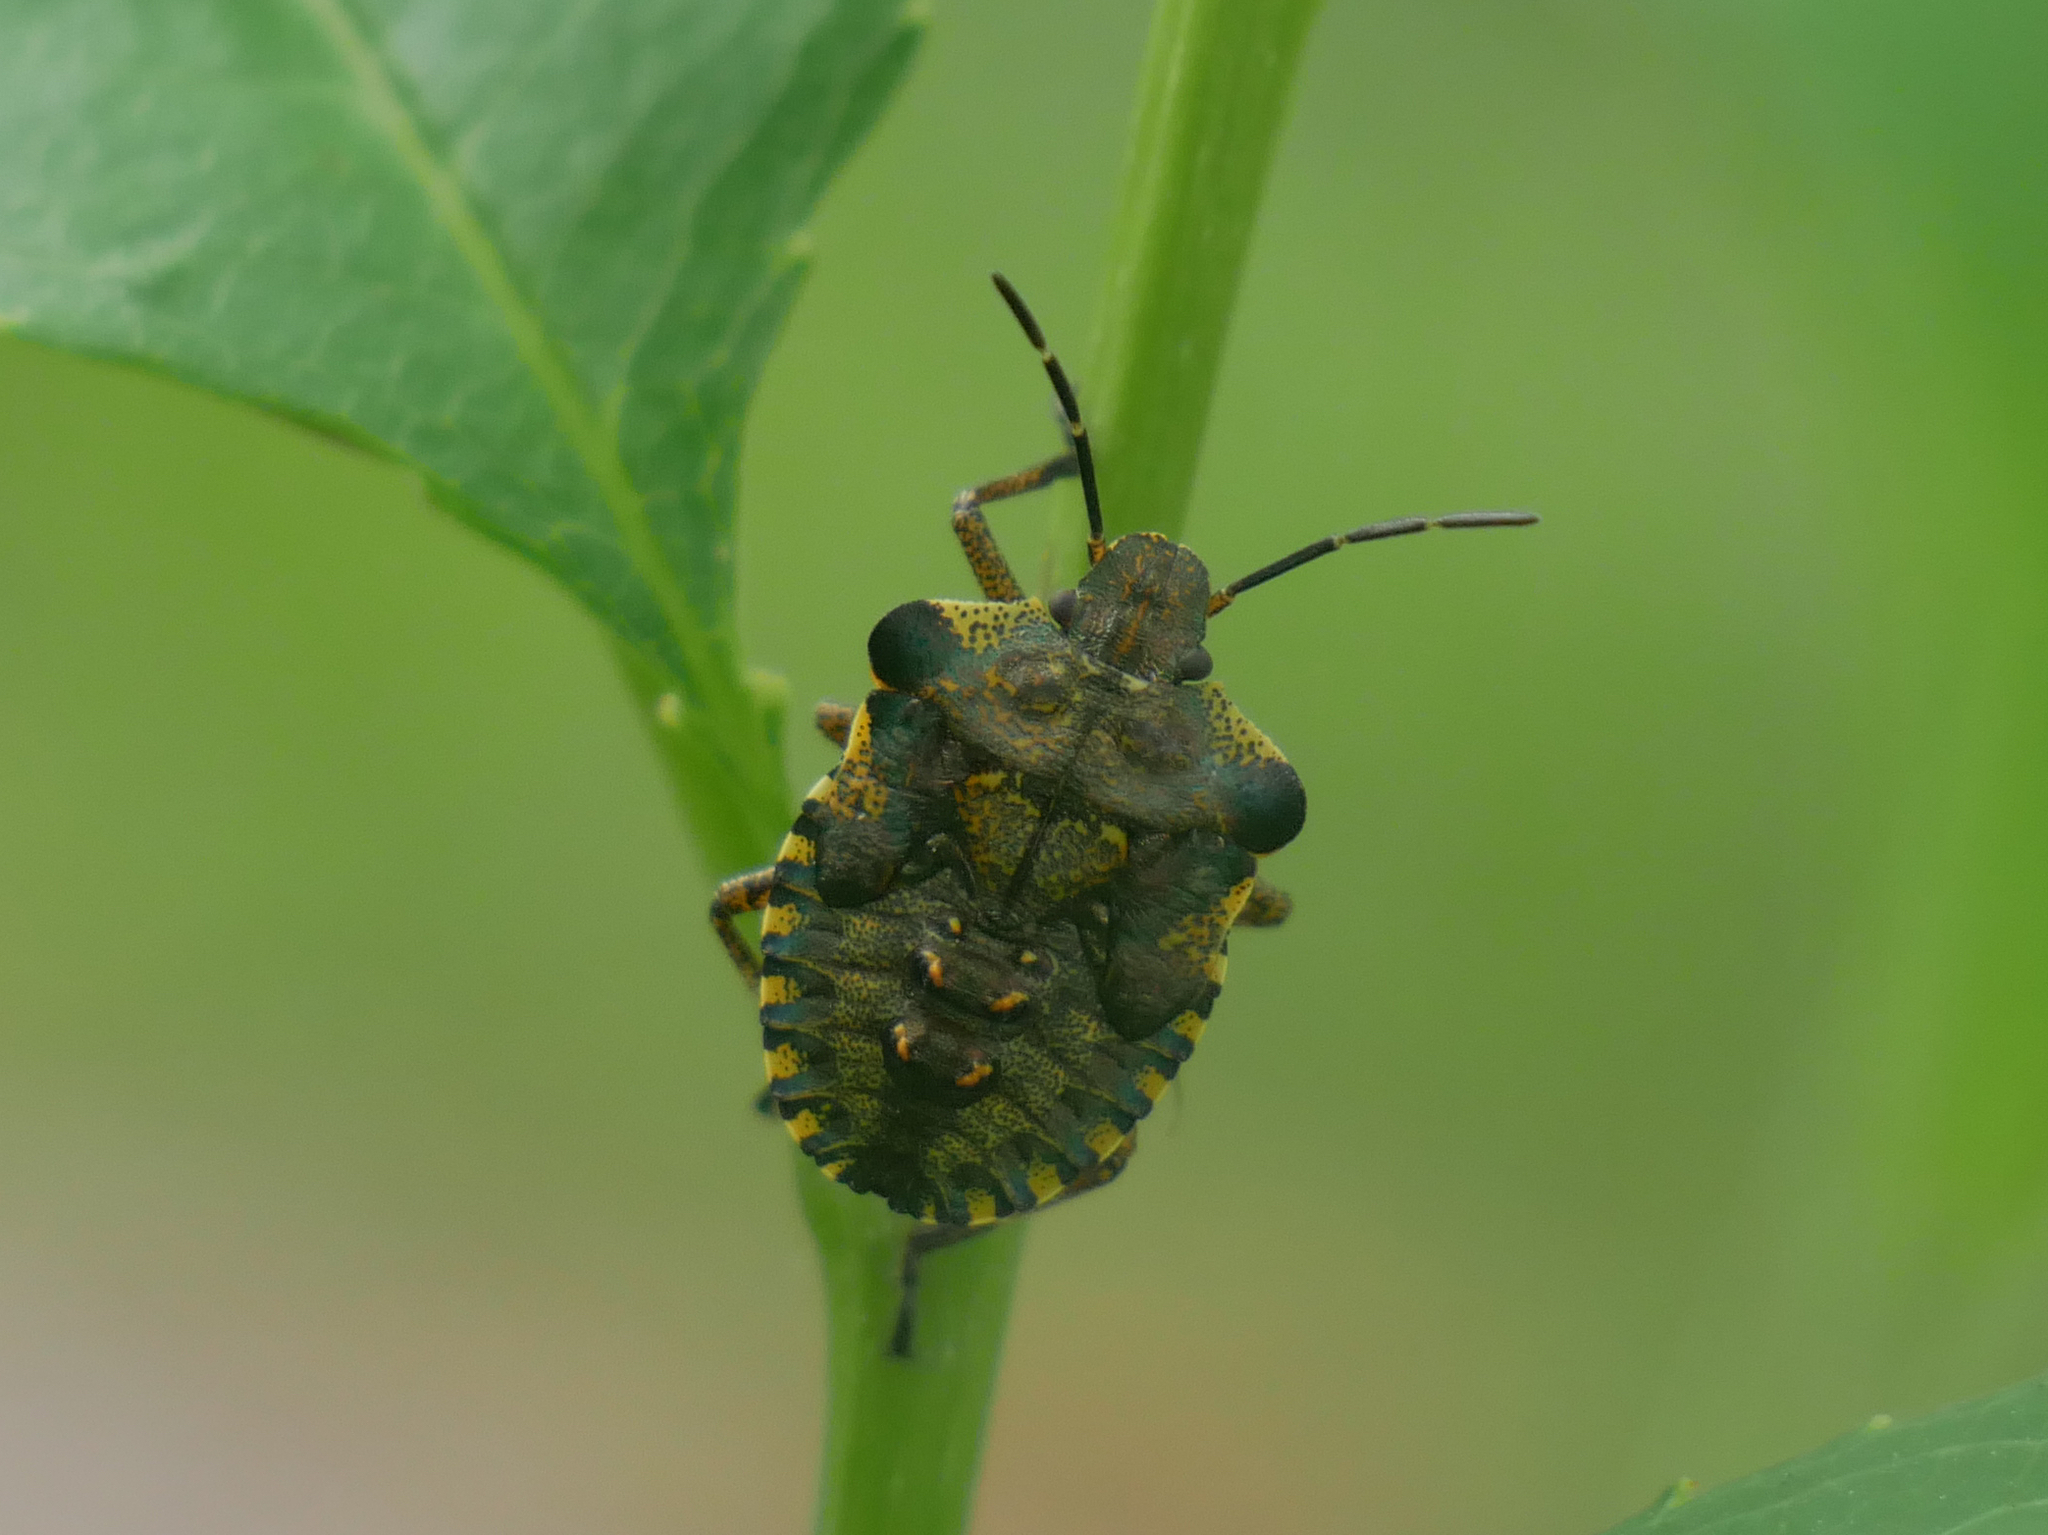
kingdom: Animalia
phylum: Arthropoda
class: Insecta
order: Hemiptera
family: Pentatomidae
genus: Pentatoma
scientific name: Pentatoma rufipes
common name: Forest bug
